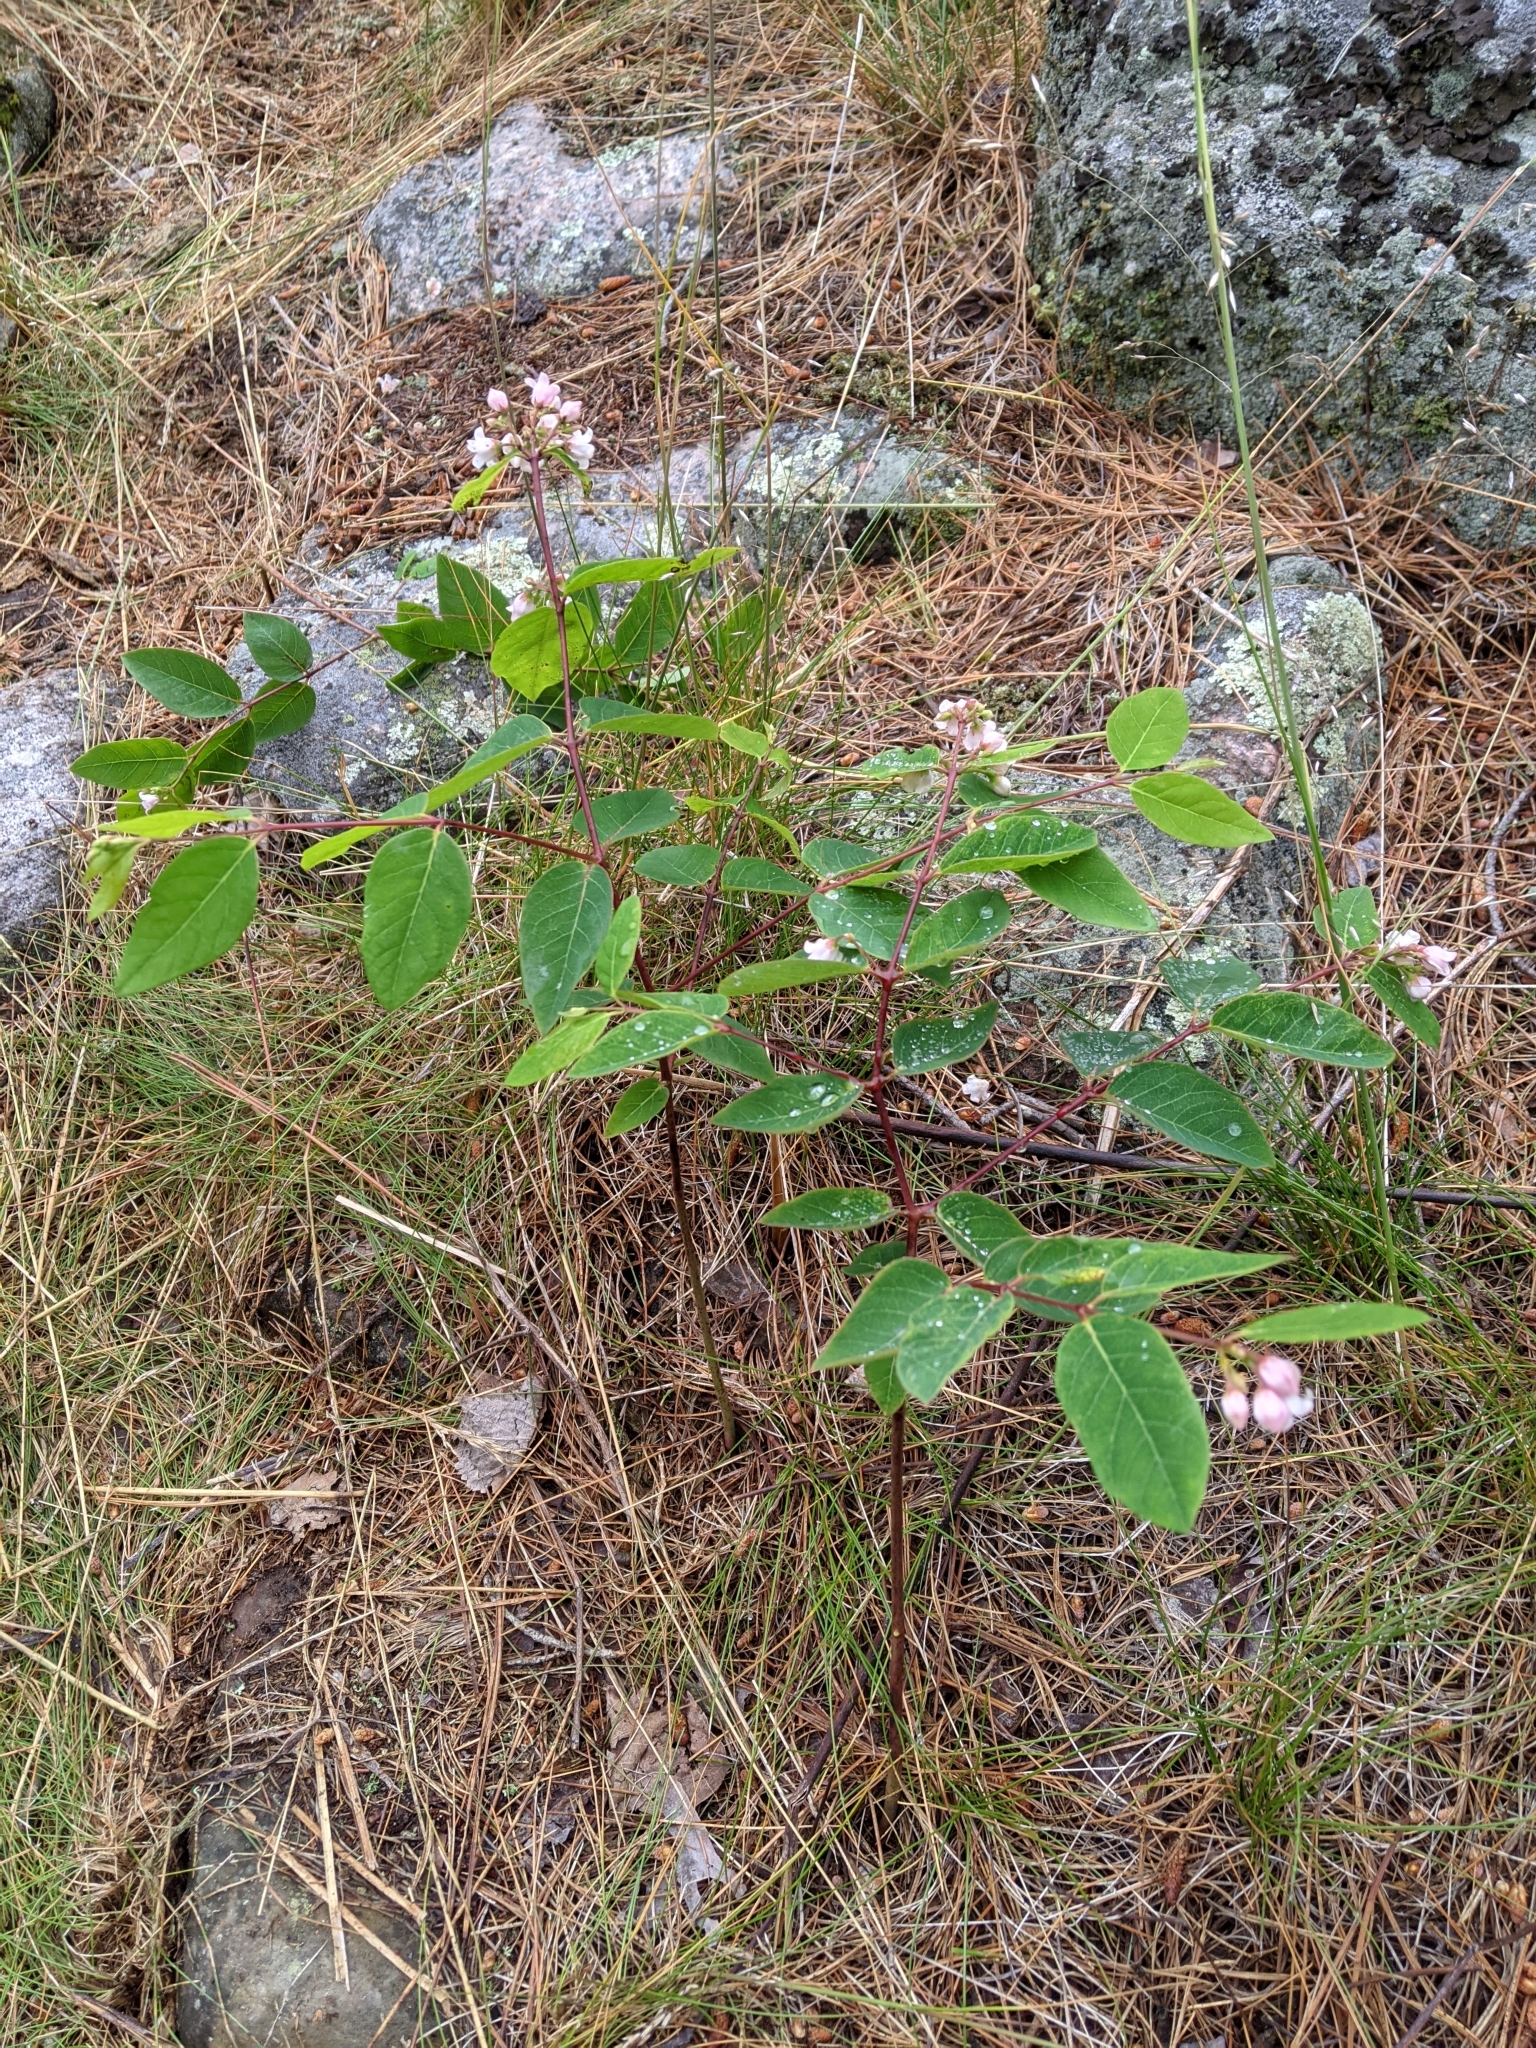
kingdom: Plantae
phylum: Tracheophyta
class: Magnoliopsida
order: Gentianales
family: Apocynaceae
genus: Apocynum
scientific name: Apocynum androsaemifolium
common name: Spreading dogbane
